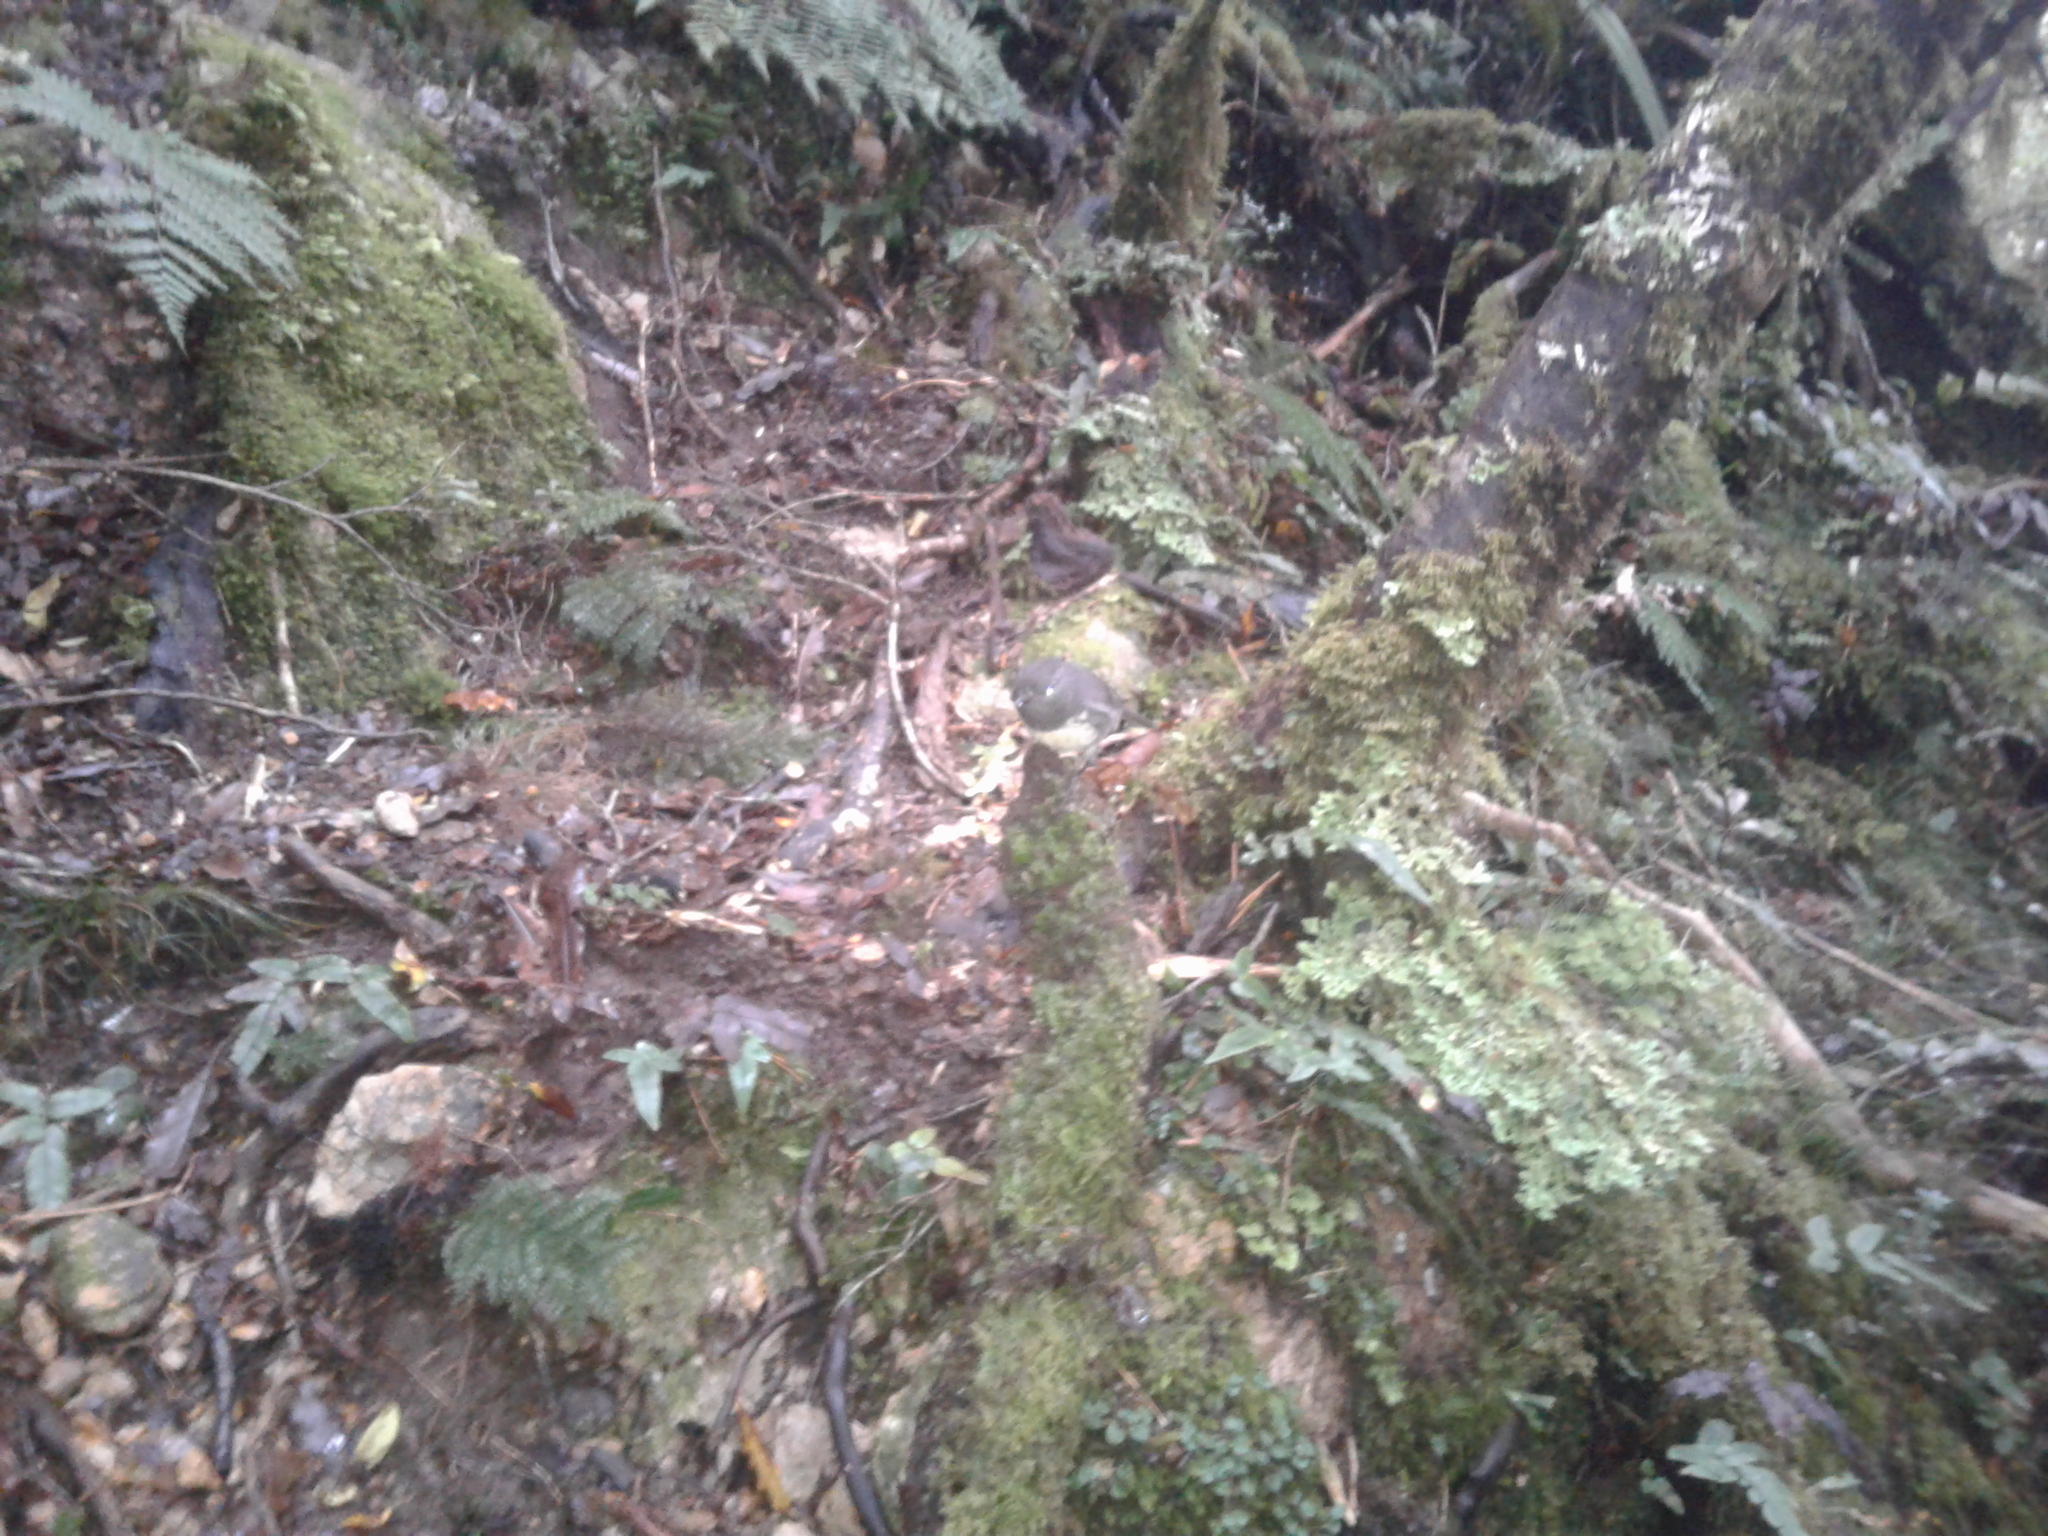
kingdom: Animalia
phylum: Chordata
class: Aves
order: Passeriformes
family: Petroicidae
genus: Petroica
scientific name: Petroica australis
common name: New zealand robin
